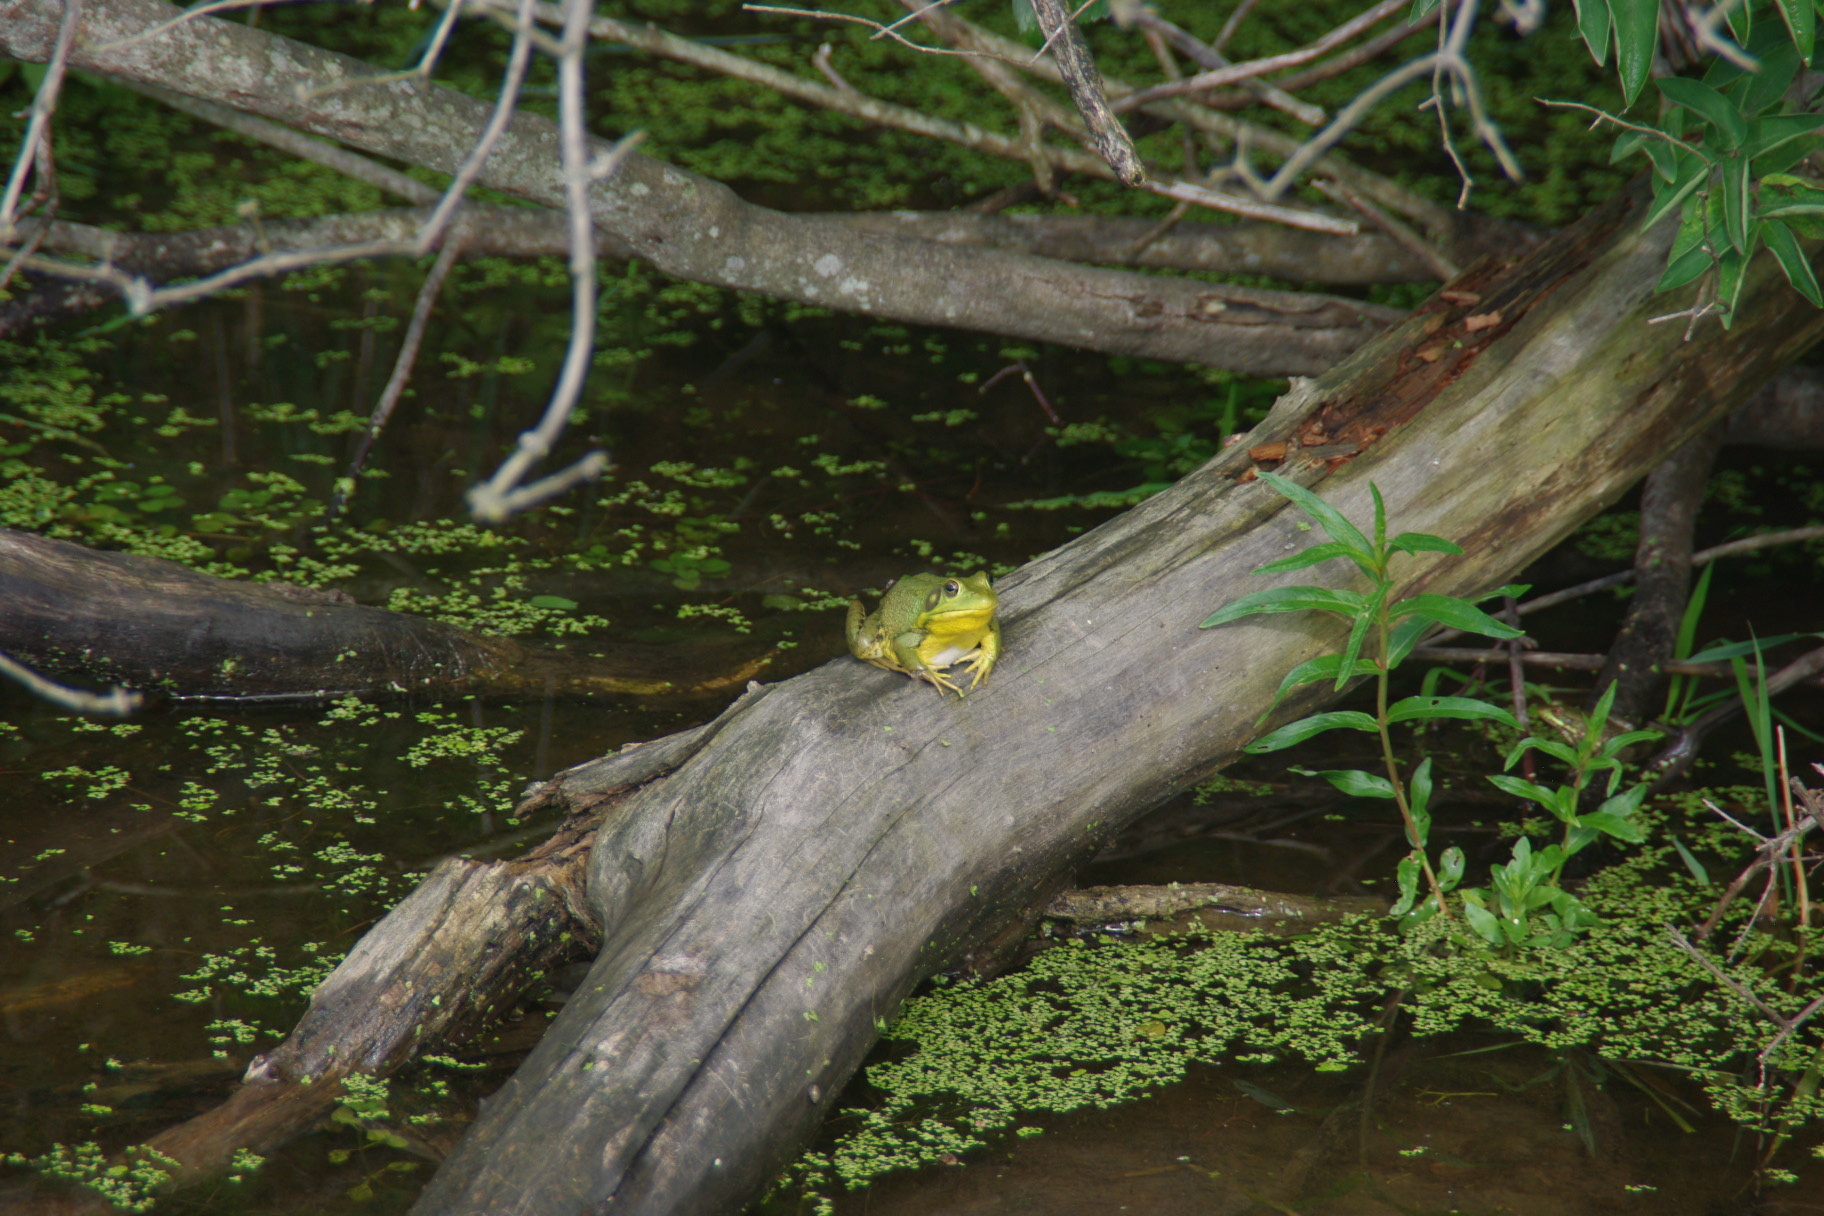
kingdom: Animalia
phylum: Chordata
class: Amphibia
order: Anura
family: Ranidae
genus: Lithobates
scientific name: Lithobates catesbeianus
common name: American bullfrog
